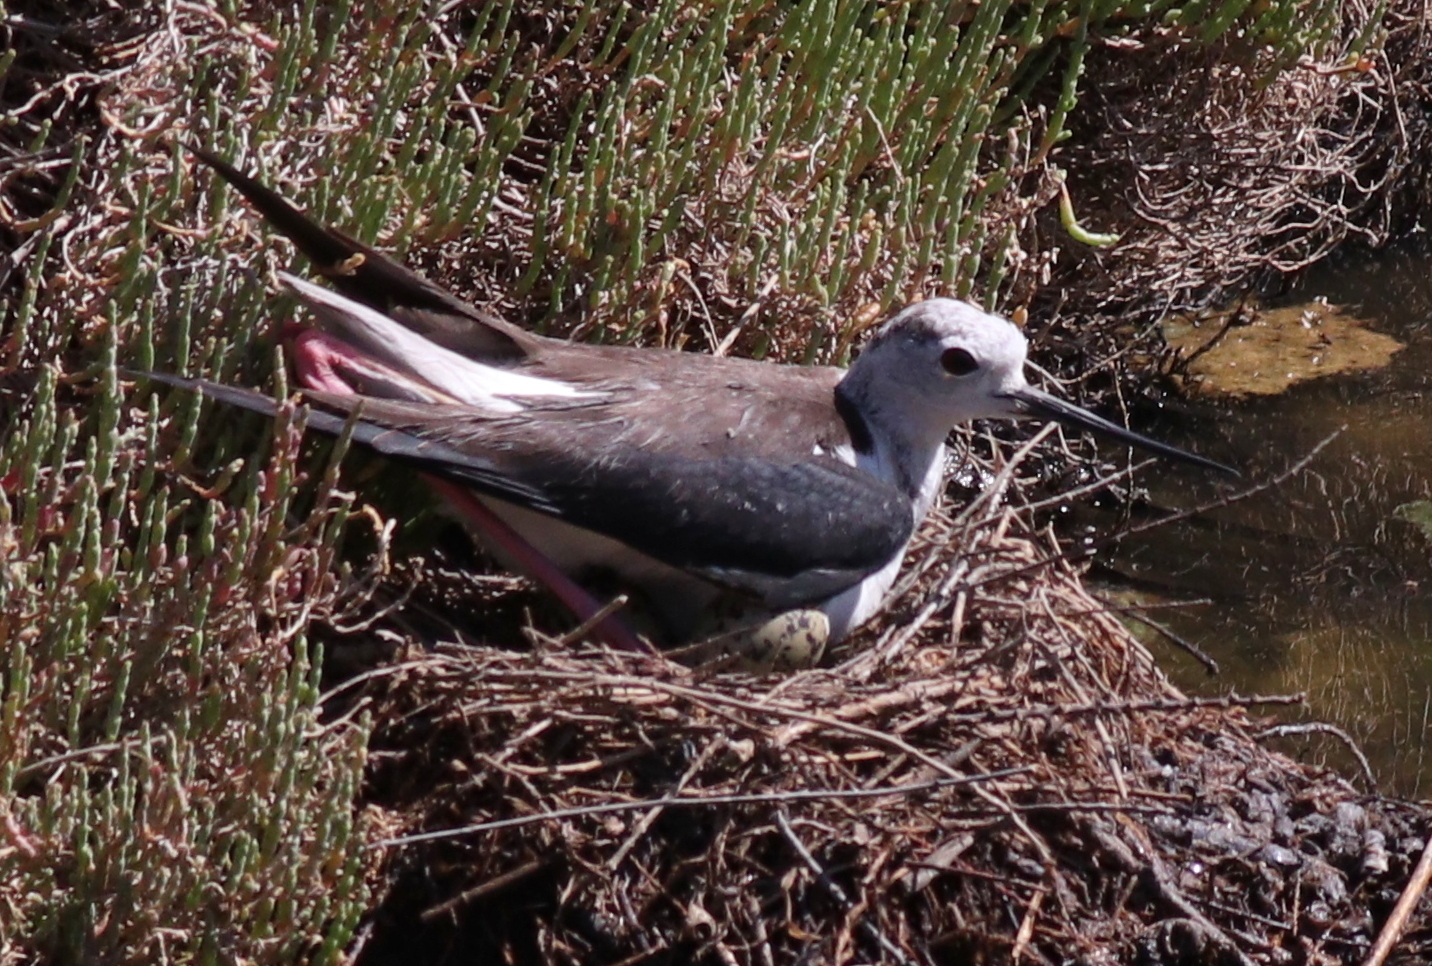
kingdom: Animalia
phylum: Chordata
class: Aves
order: Charadriiformes
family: Recurvirostridae
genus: Himantopus
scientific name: Himantopus himantopus
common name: Black-winged stilt
